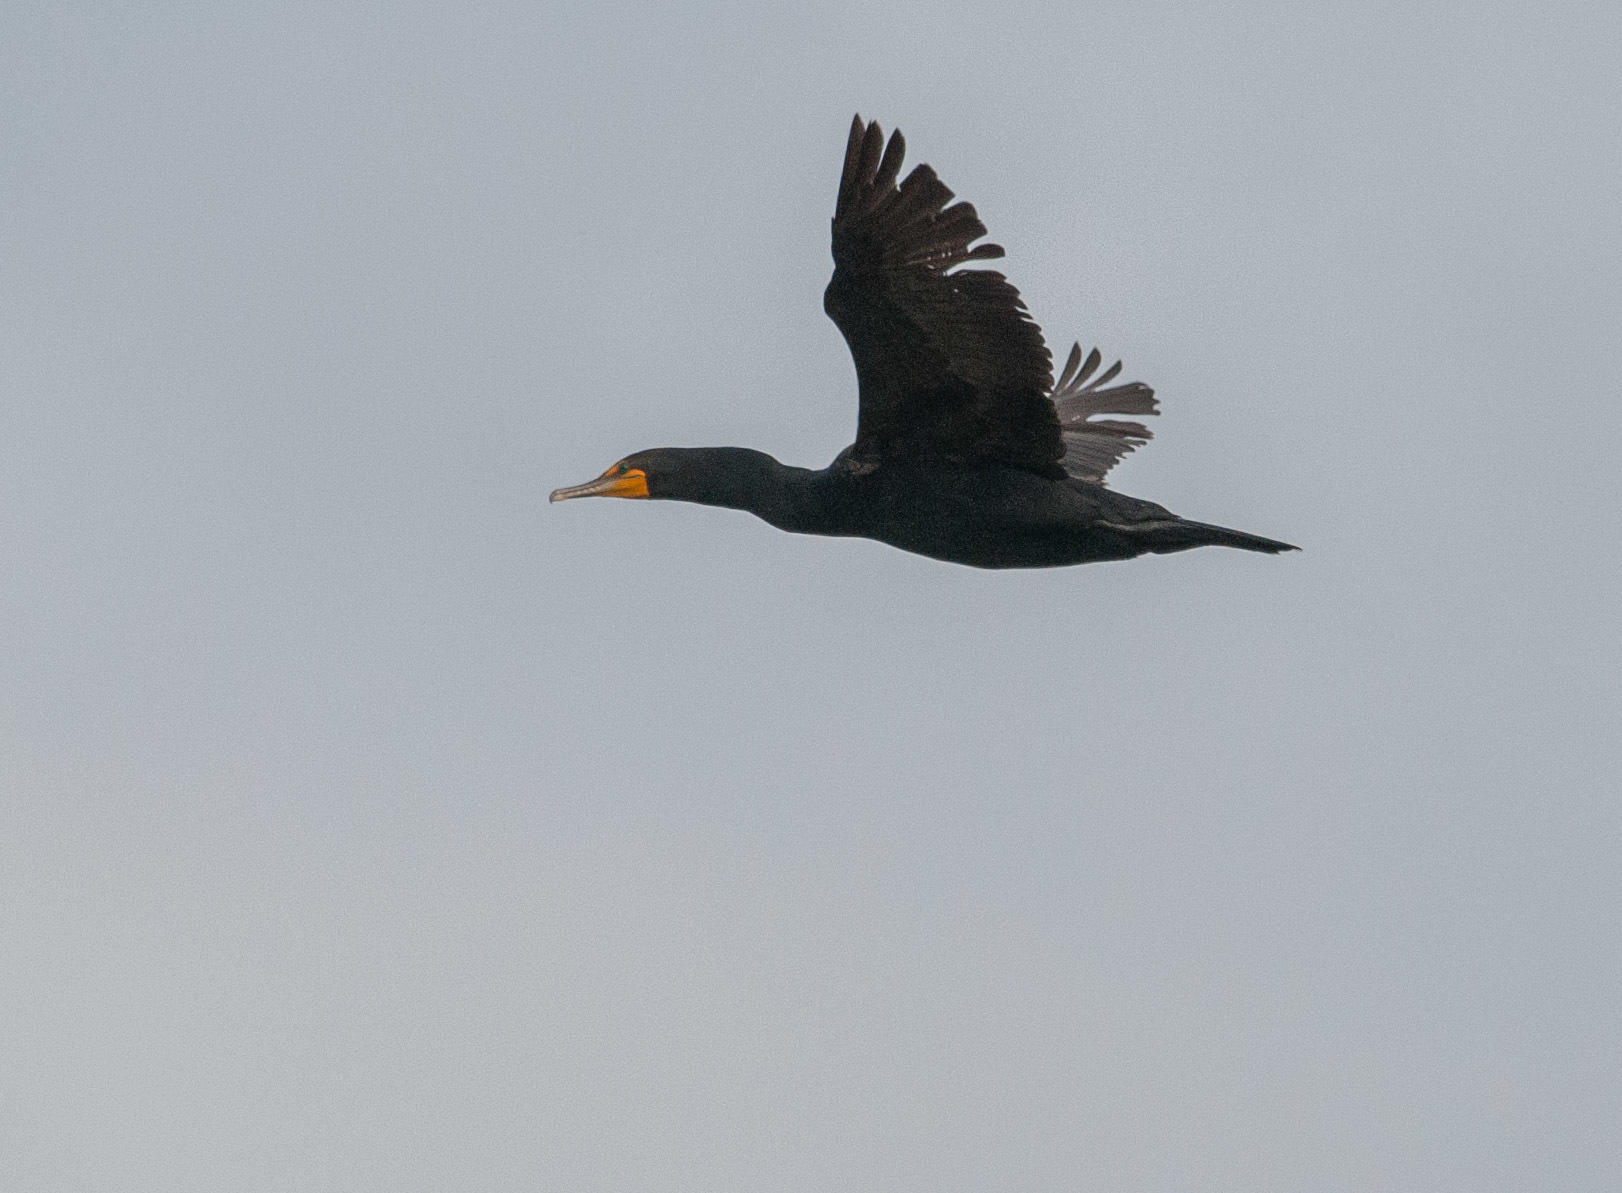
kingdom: Animalia
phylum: Chordata
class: Aves
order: Suliformes
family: Phalacrocoracidae
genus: Phalacrocorax
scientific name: Phalacrocorax auritus
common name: Double-crested cormorant
